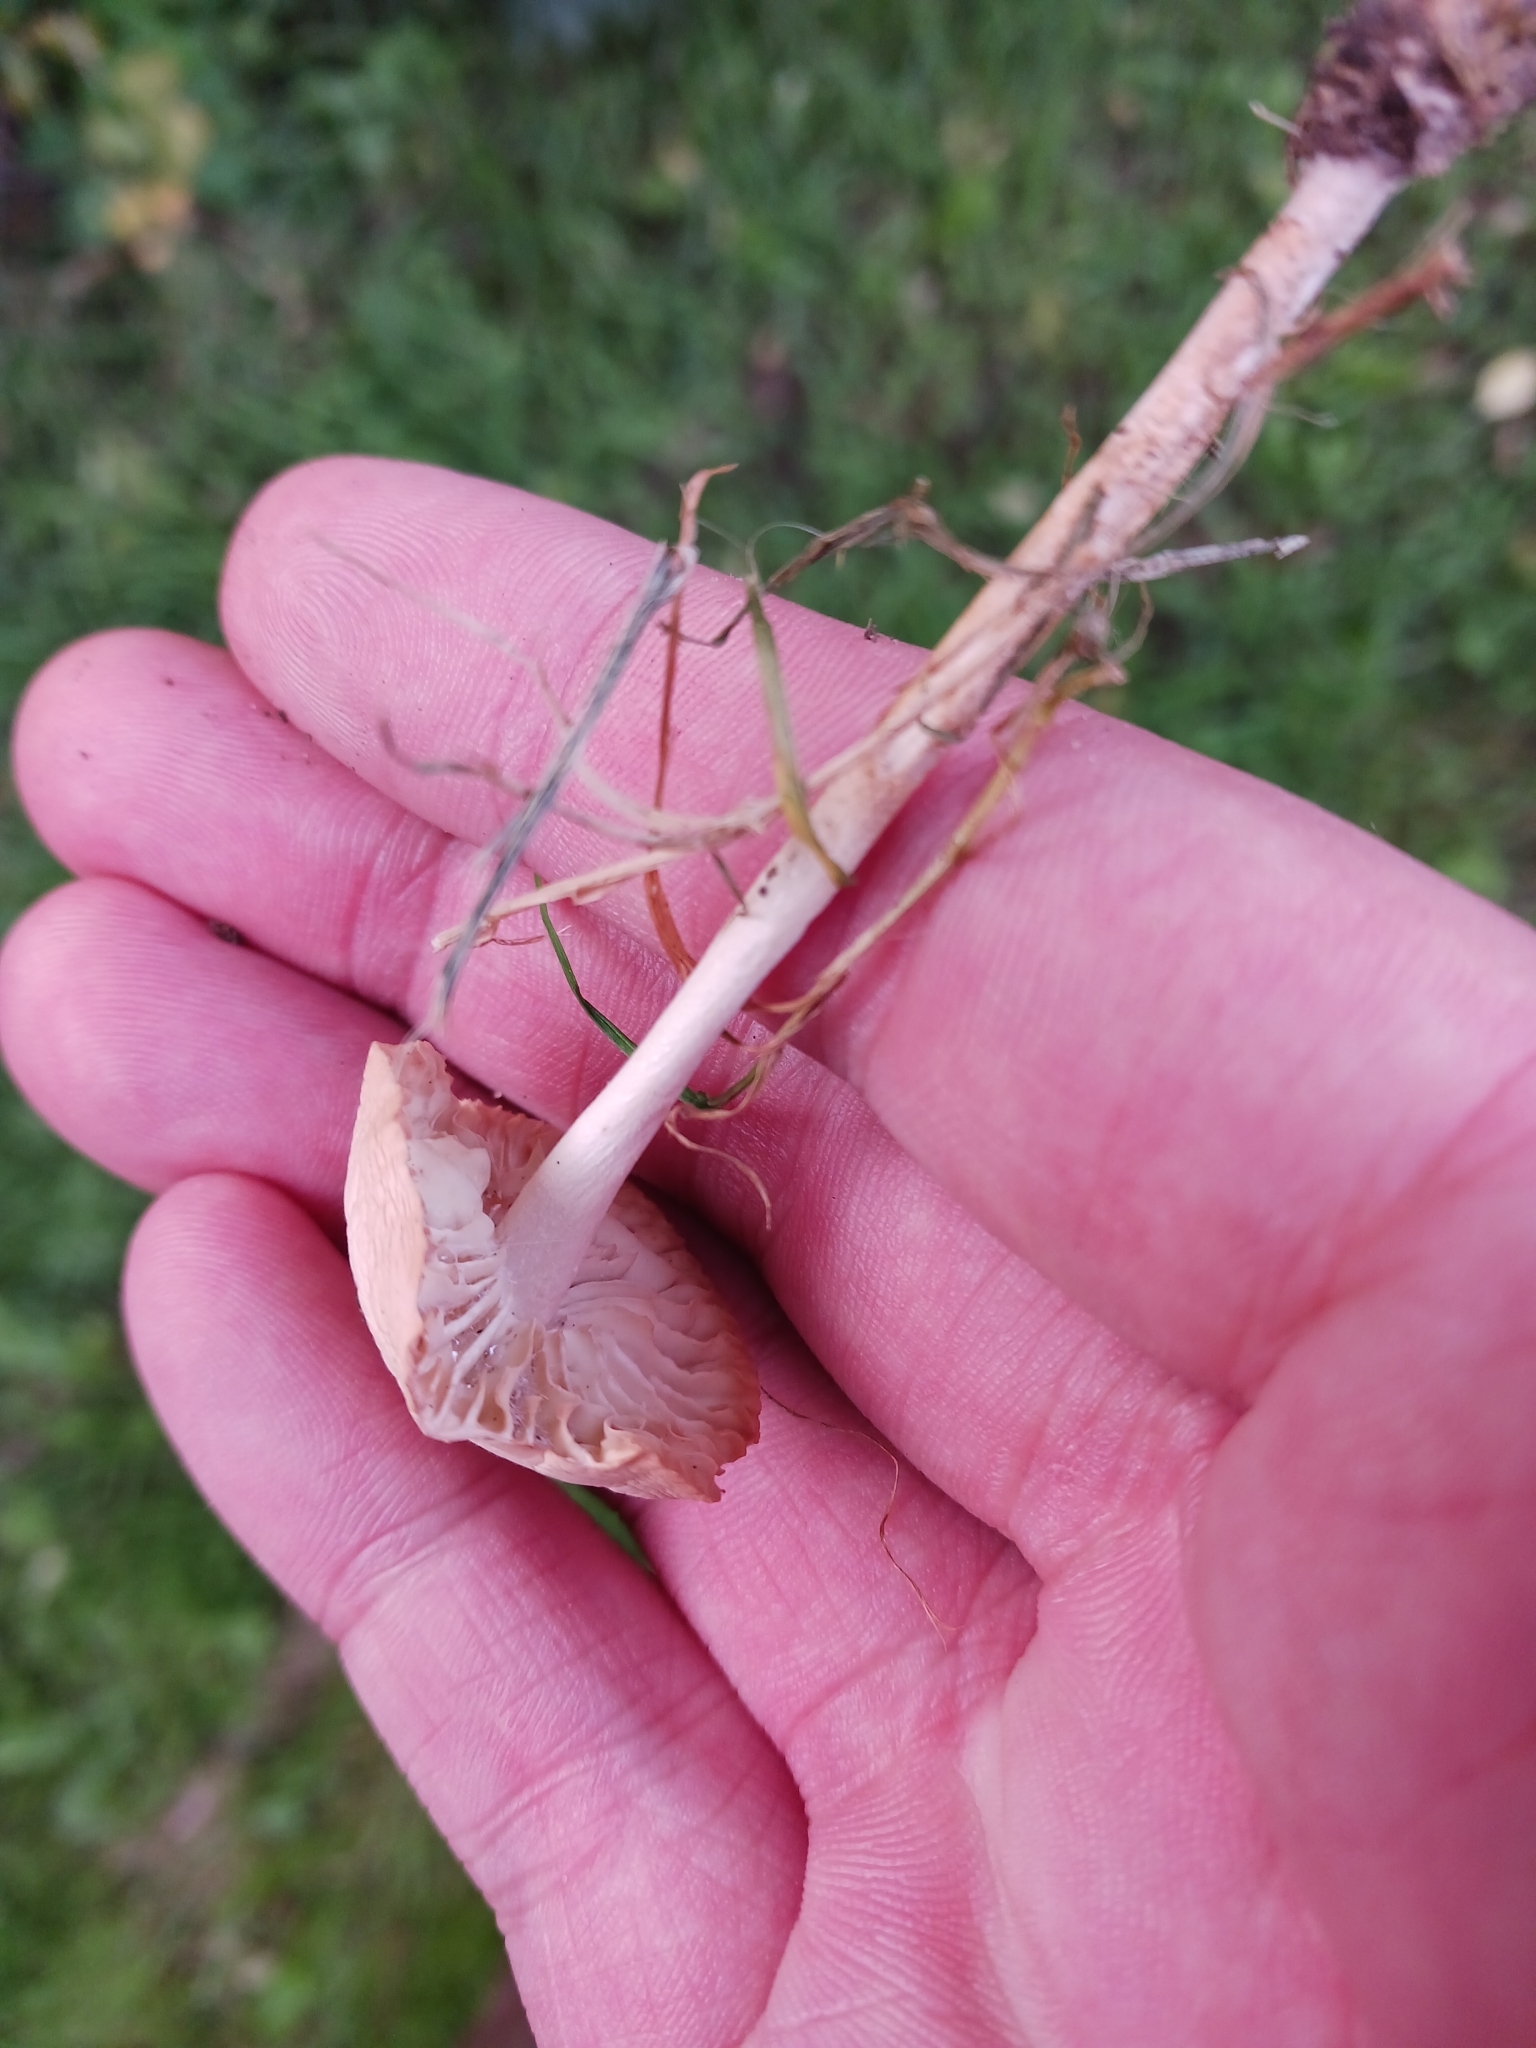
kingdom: Fungi
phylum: Basidiomycota
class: Agaricomycetes
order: Agaricales
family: Marasmiaceae
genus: Marasmius
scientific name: Marasmius oreades
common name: Fairy ring champignon
